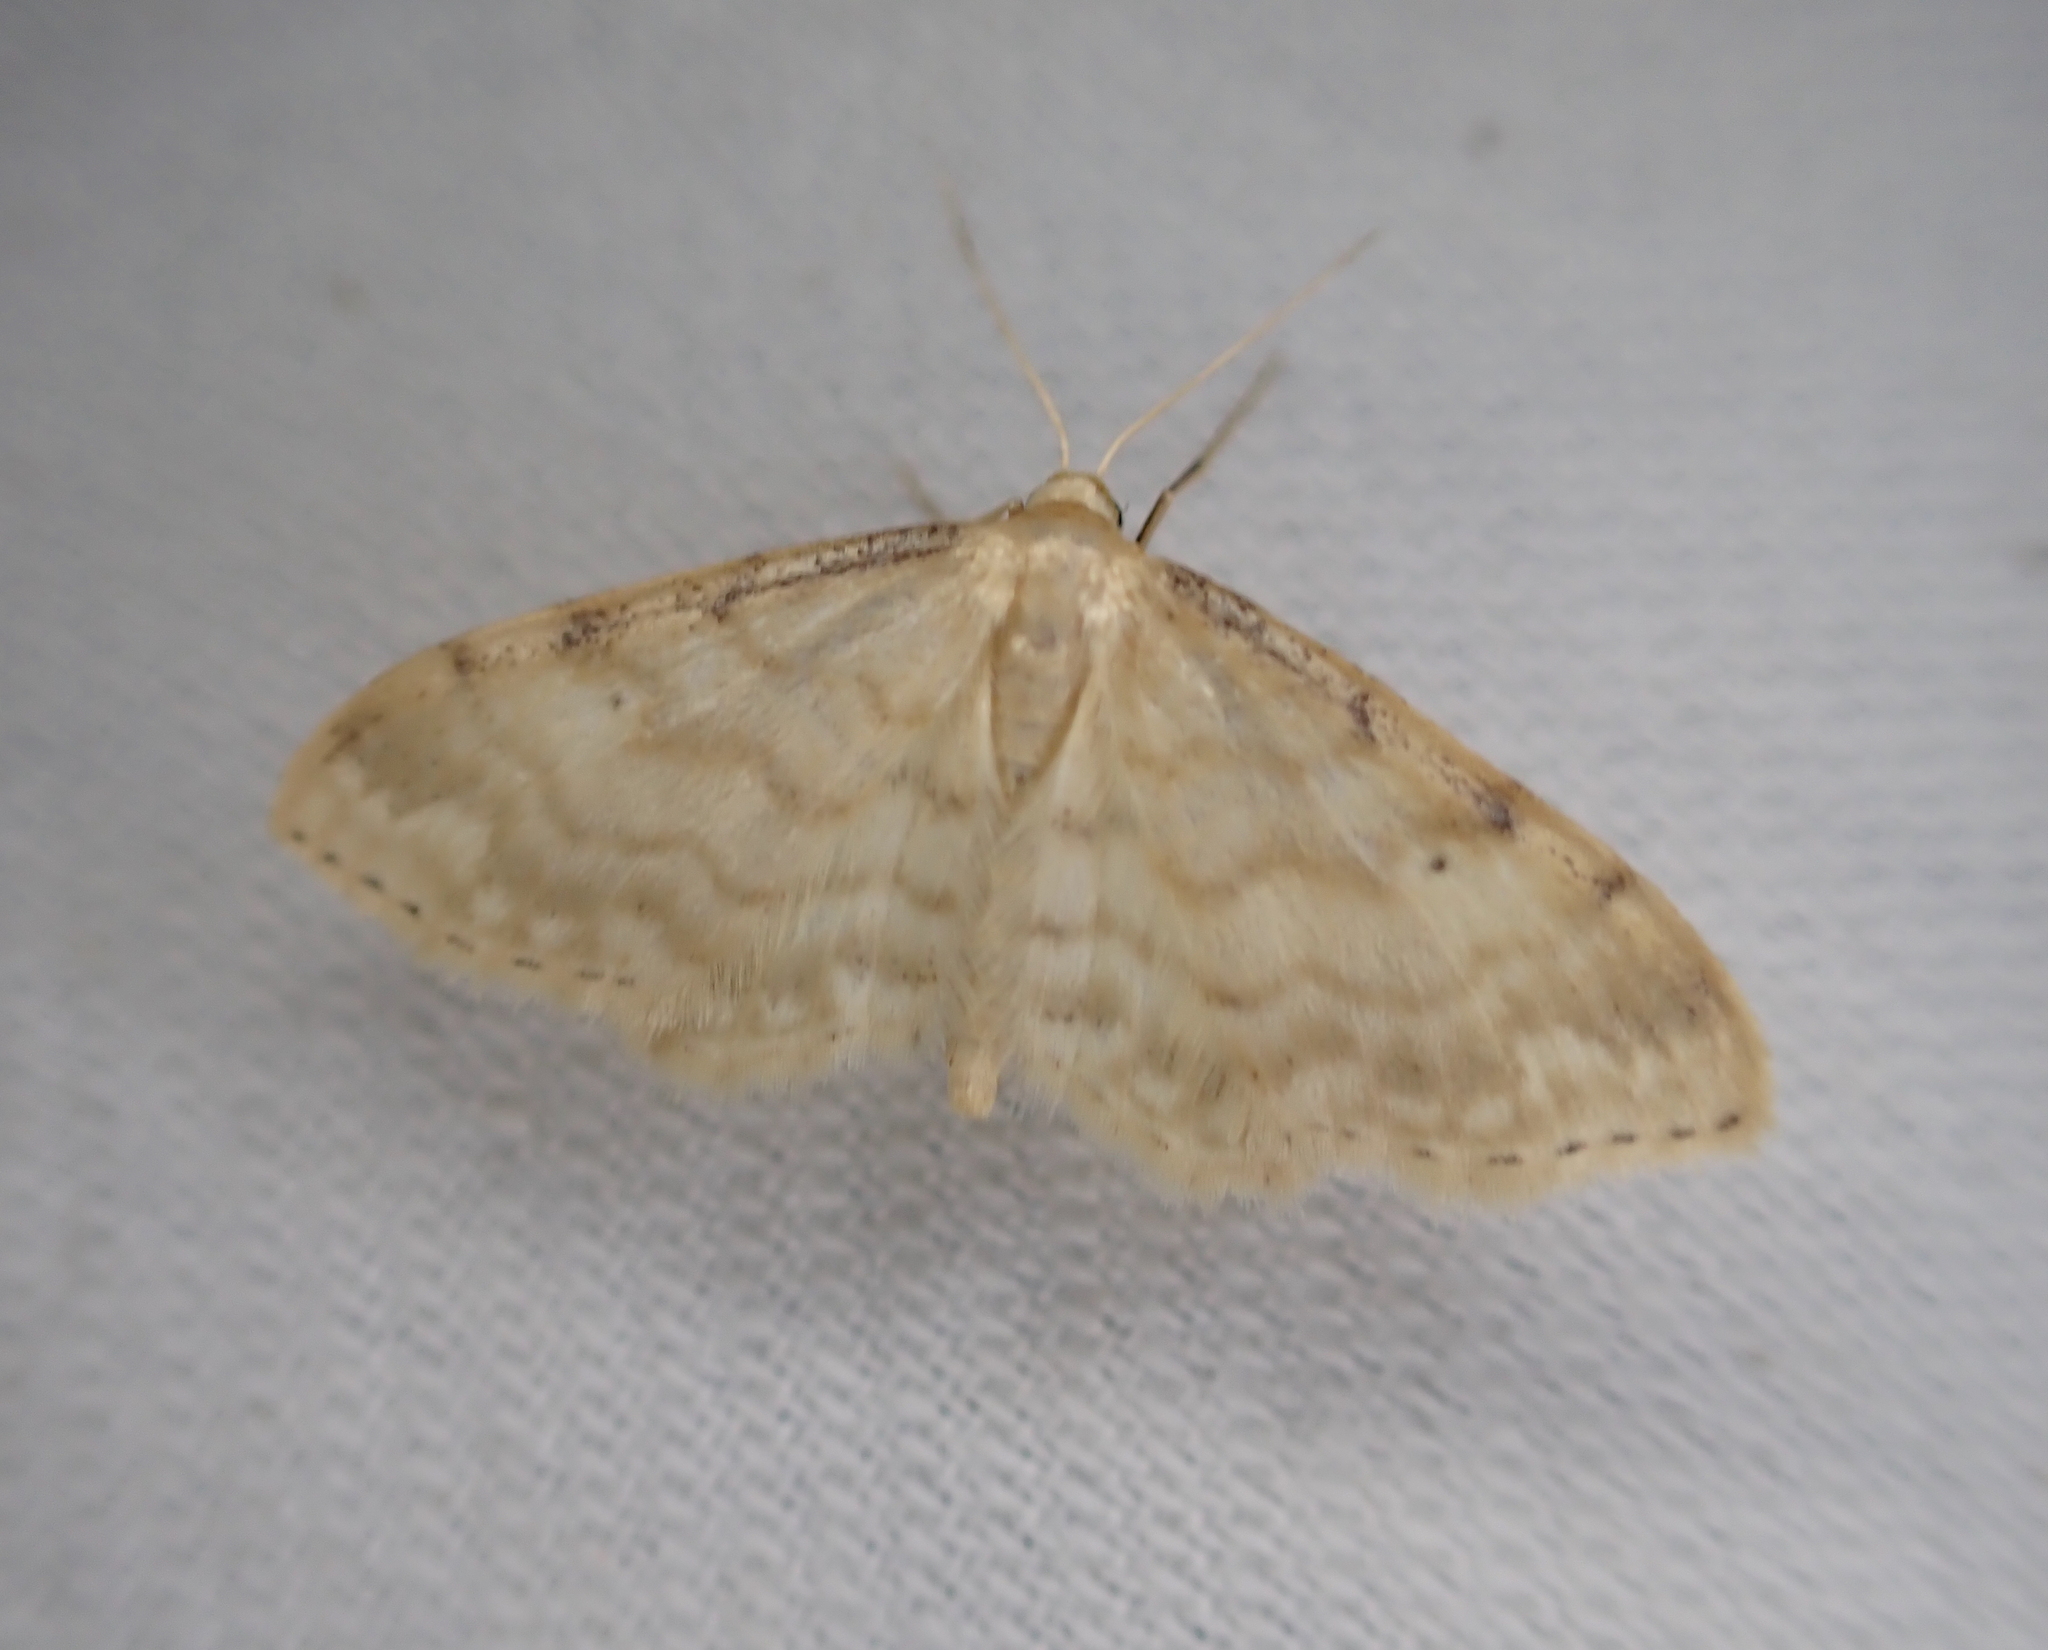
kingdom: Animalia
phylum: Arthropoda
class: Insecta
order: Lepidoptera
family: Geometridae
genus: Idaea
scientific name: Idaea fuscovenosa
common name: Dwarf cream wave
